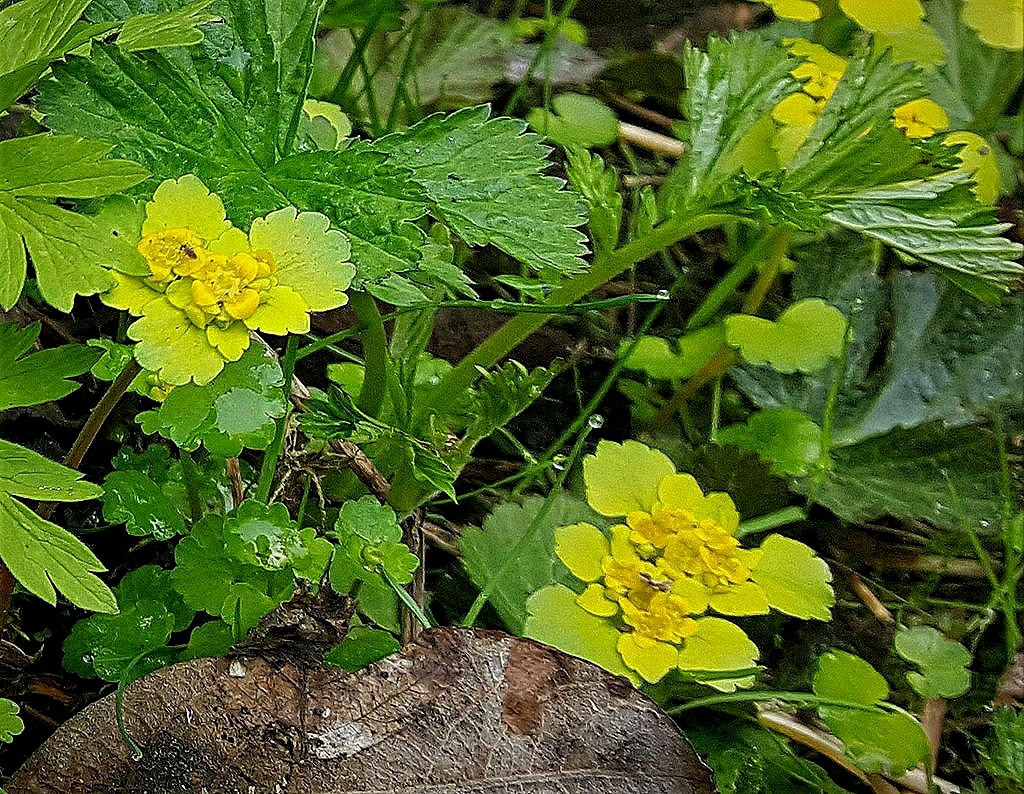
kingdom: Plantae
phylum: Tracheophyta
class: Magnoliopsida
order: Saxifragales
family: Saxifragaceae
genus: Chrysosplenium
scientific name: Chrysosplenium alternifolium
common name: Alternate-leaved golden-saxifrage
